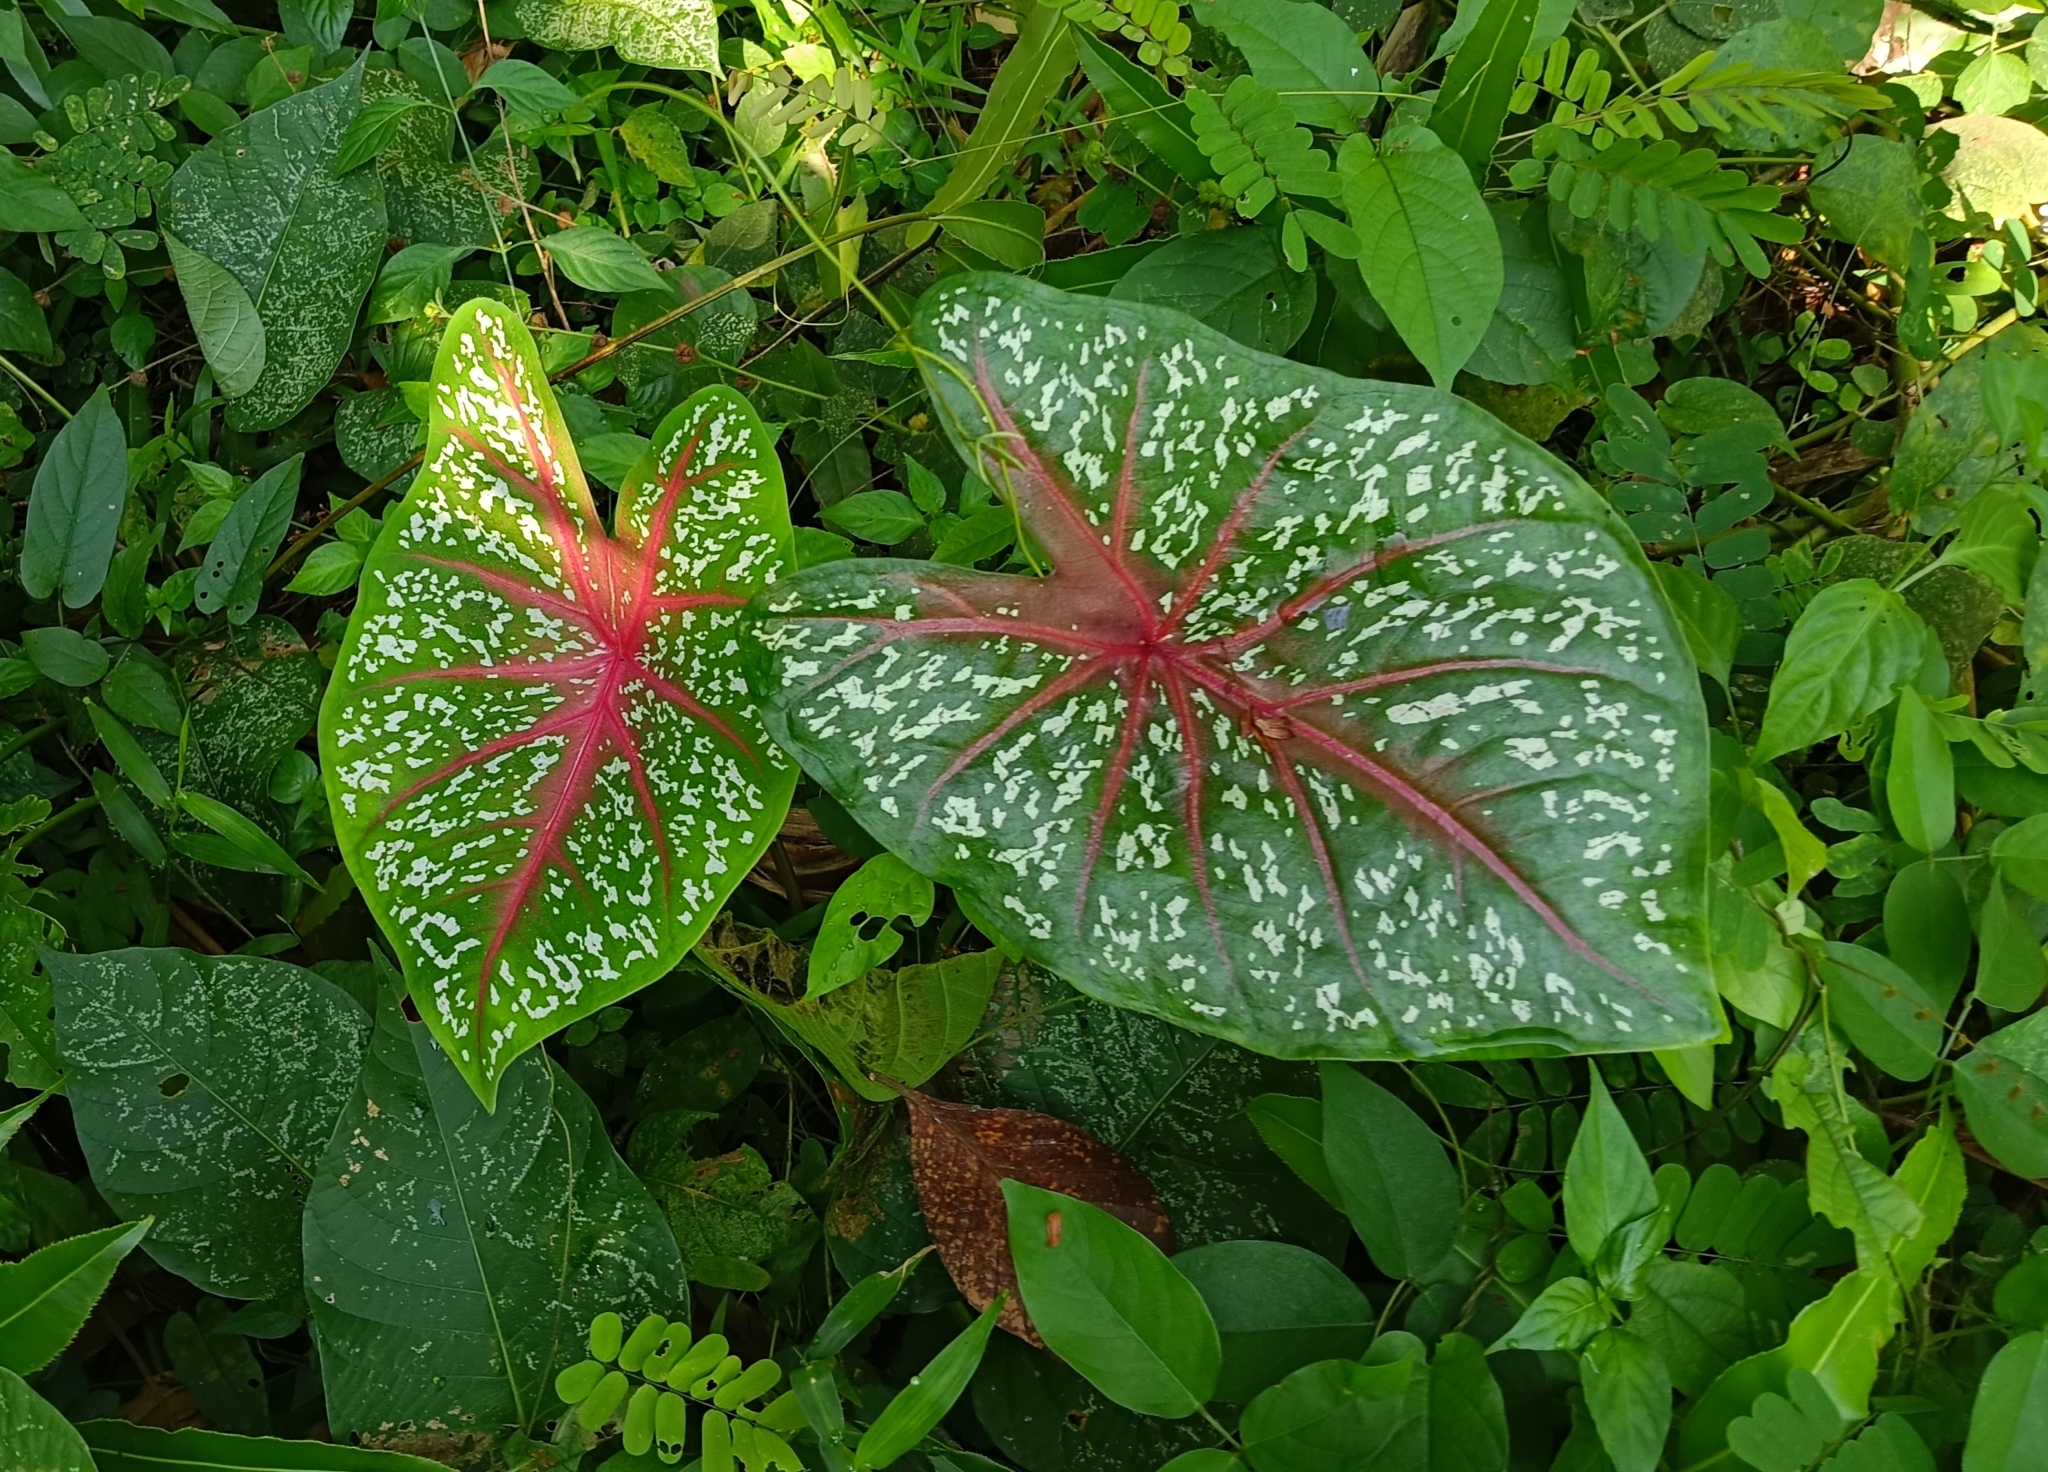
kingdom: Plantae
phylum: Tracheophyta
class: Liliopsida
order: Alismatales
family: Araceae
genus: Caladium
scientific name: Caladium bicolor
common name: Artist's pallet
